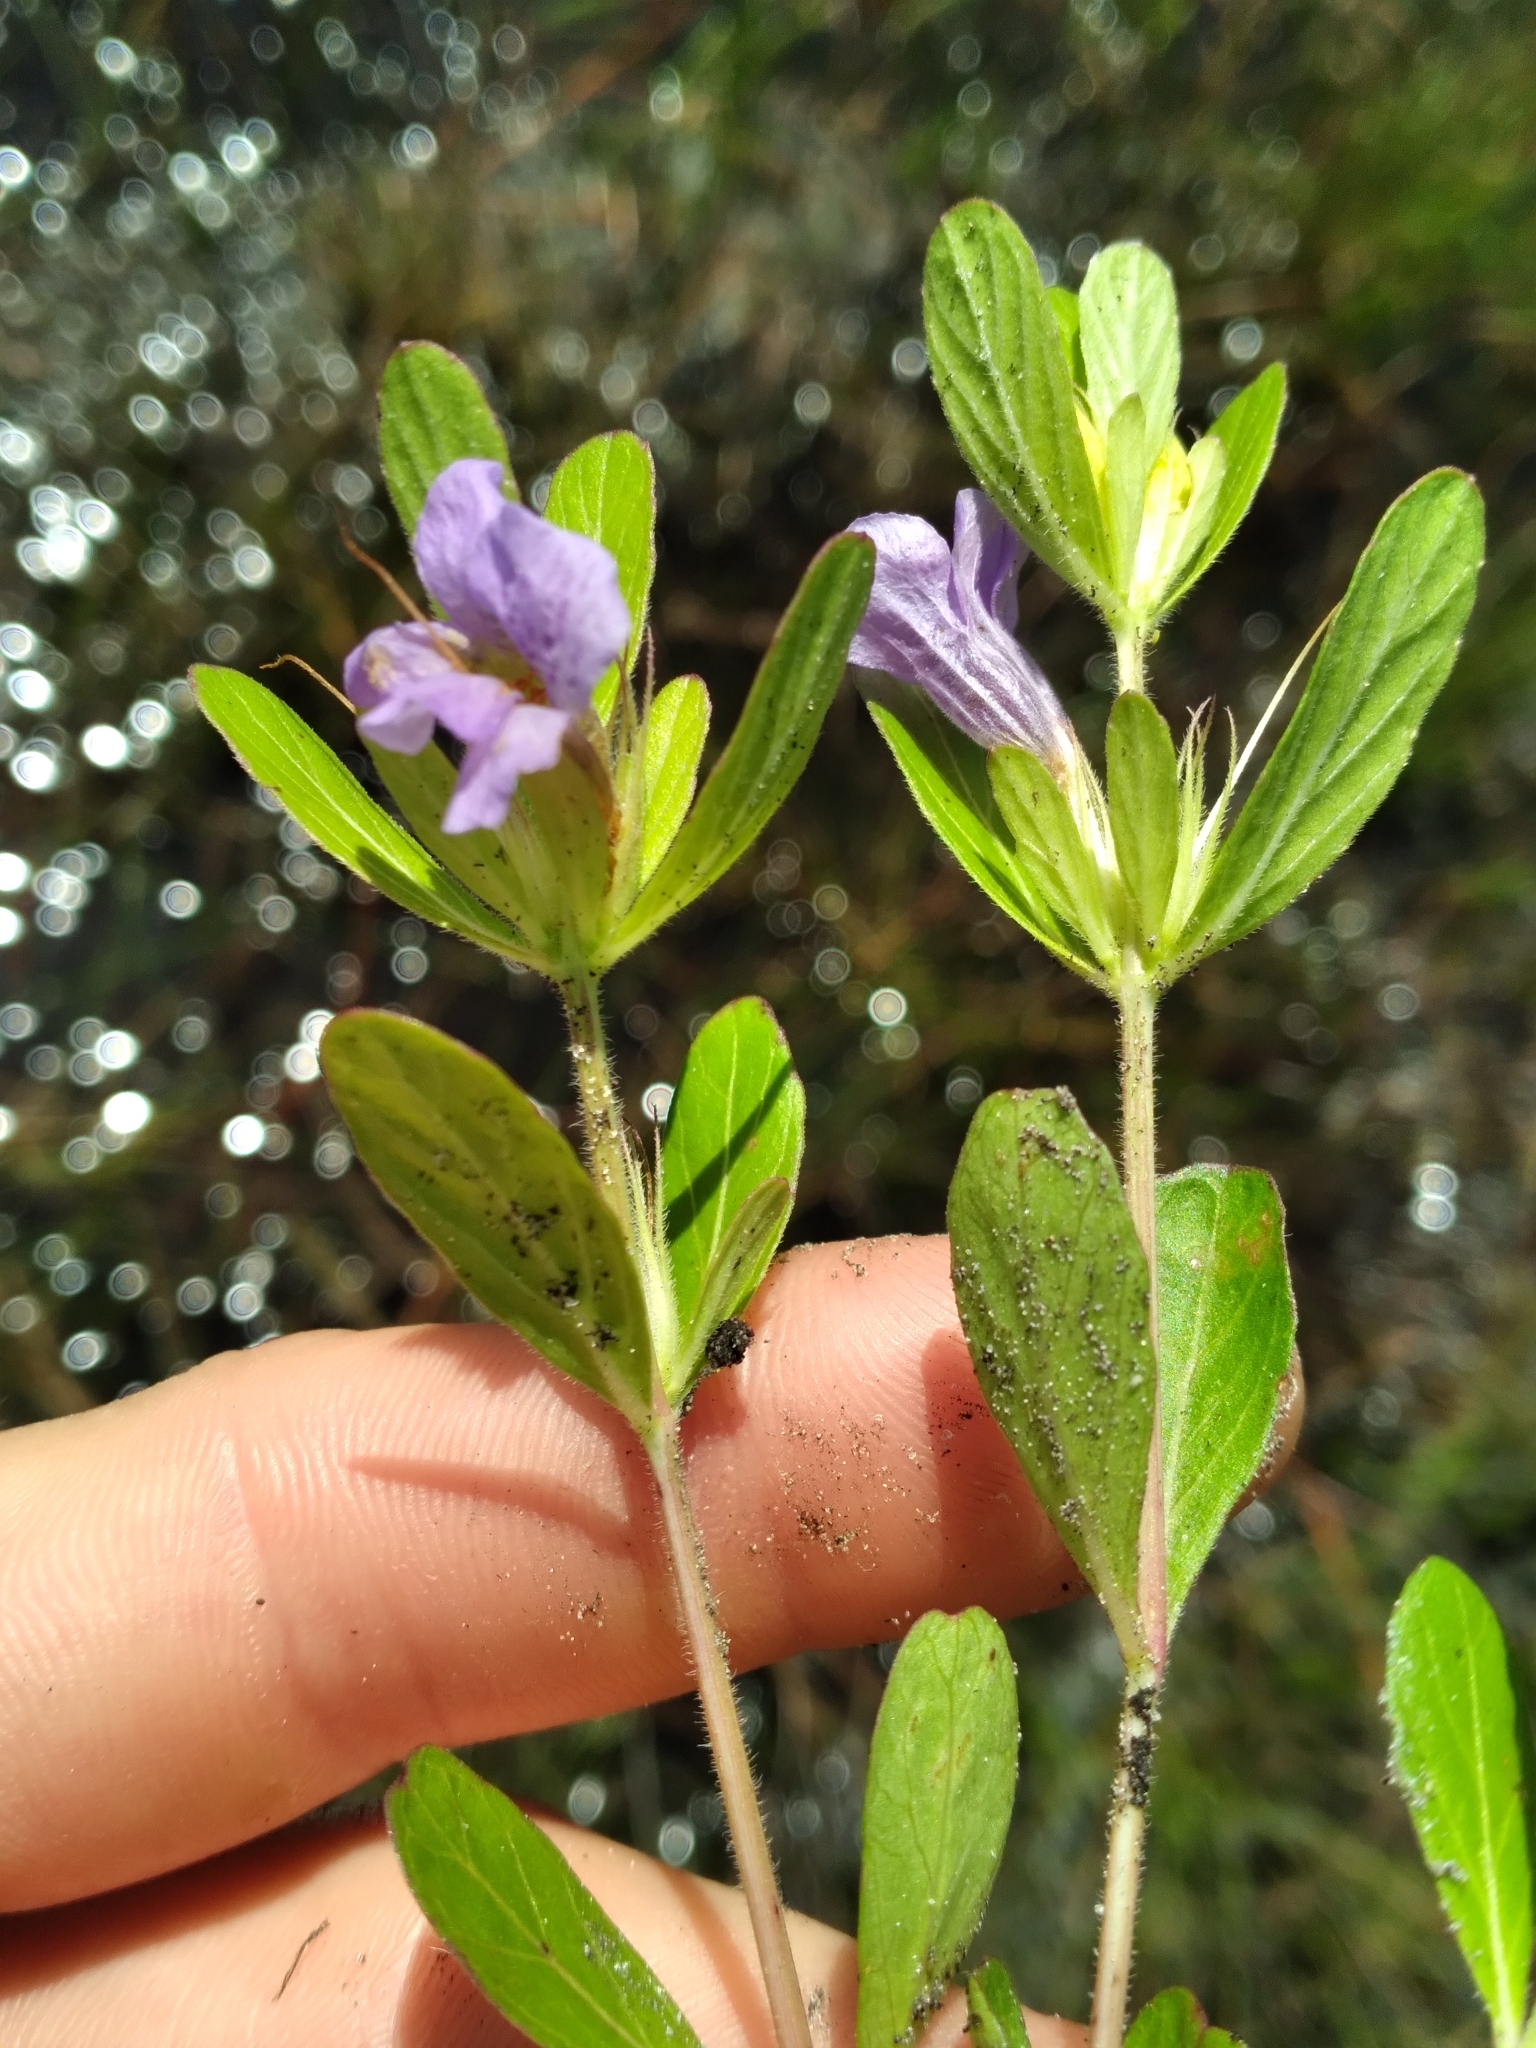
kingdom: Plantae
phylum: Tracheophyta
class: Magnoliopsida
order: Lamiales
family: Acanthaceae
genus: Dyschoriste
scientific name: Dyschoriste oblongifolia
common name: Blue twinflower
